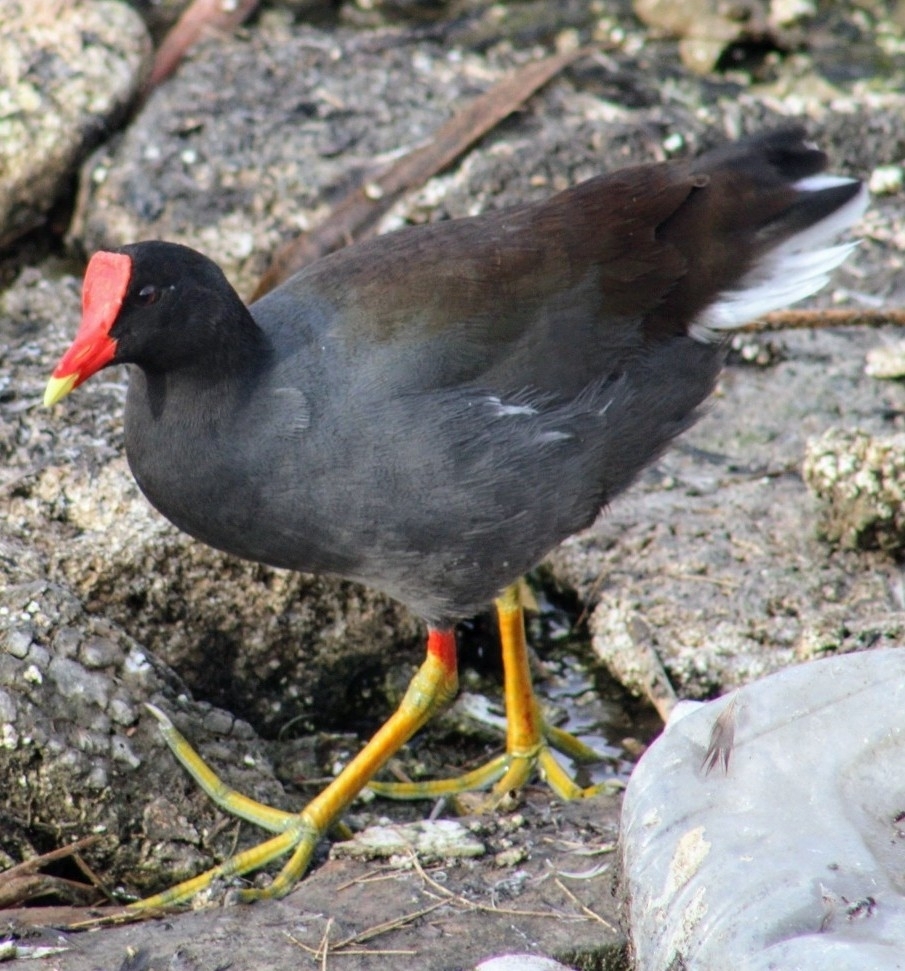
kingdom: Animalia
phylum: Chordata
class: Aves
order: Gruiformes
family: Rallidae
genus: Gallinula
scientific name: Gallinula chloropus
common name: Common moorhen
